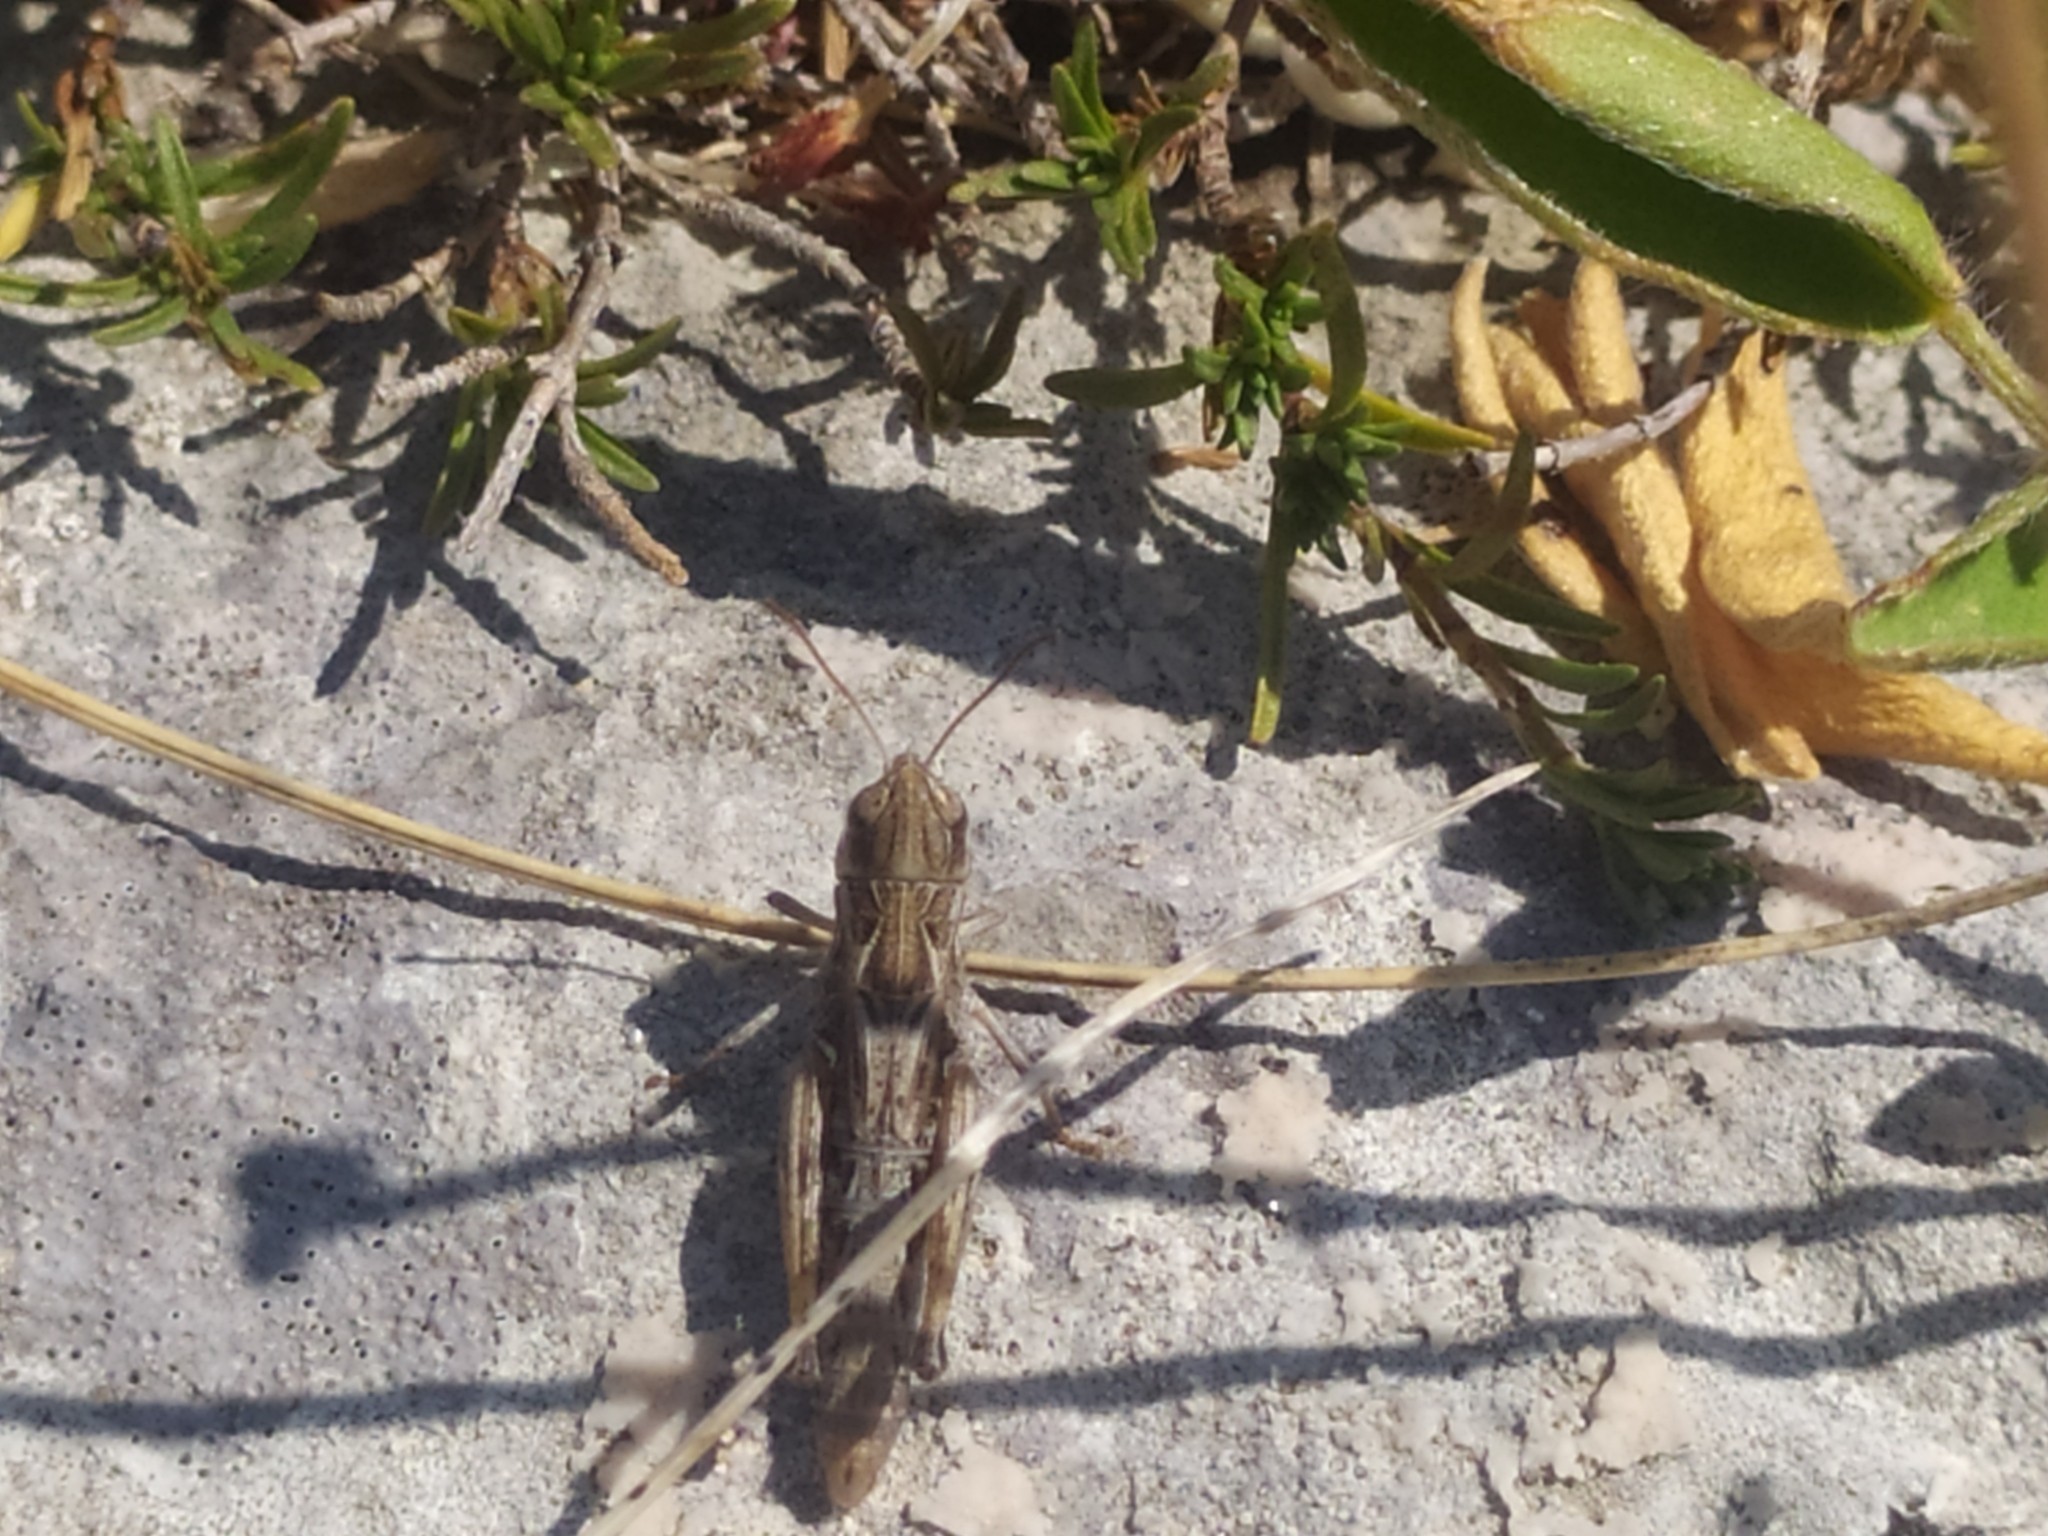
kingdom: Animalia
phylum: Arthropoda
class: Insecta
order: Orthoptera
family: Acrididae
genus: Rammeihippus
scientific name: Rammeihippus dinaricus
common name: Dinarian grasshopper
